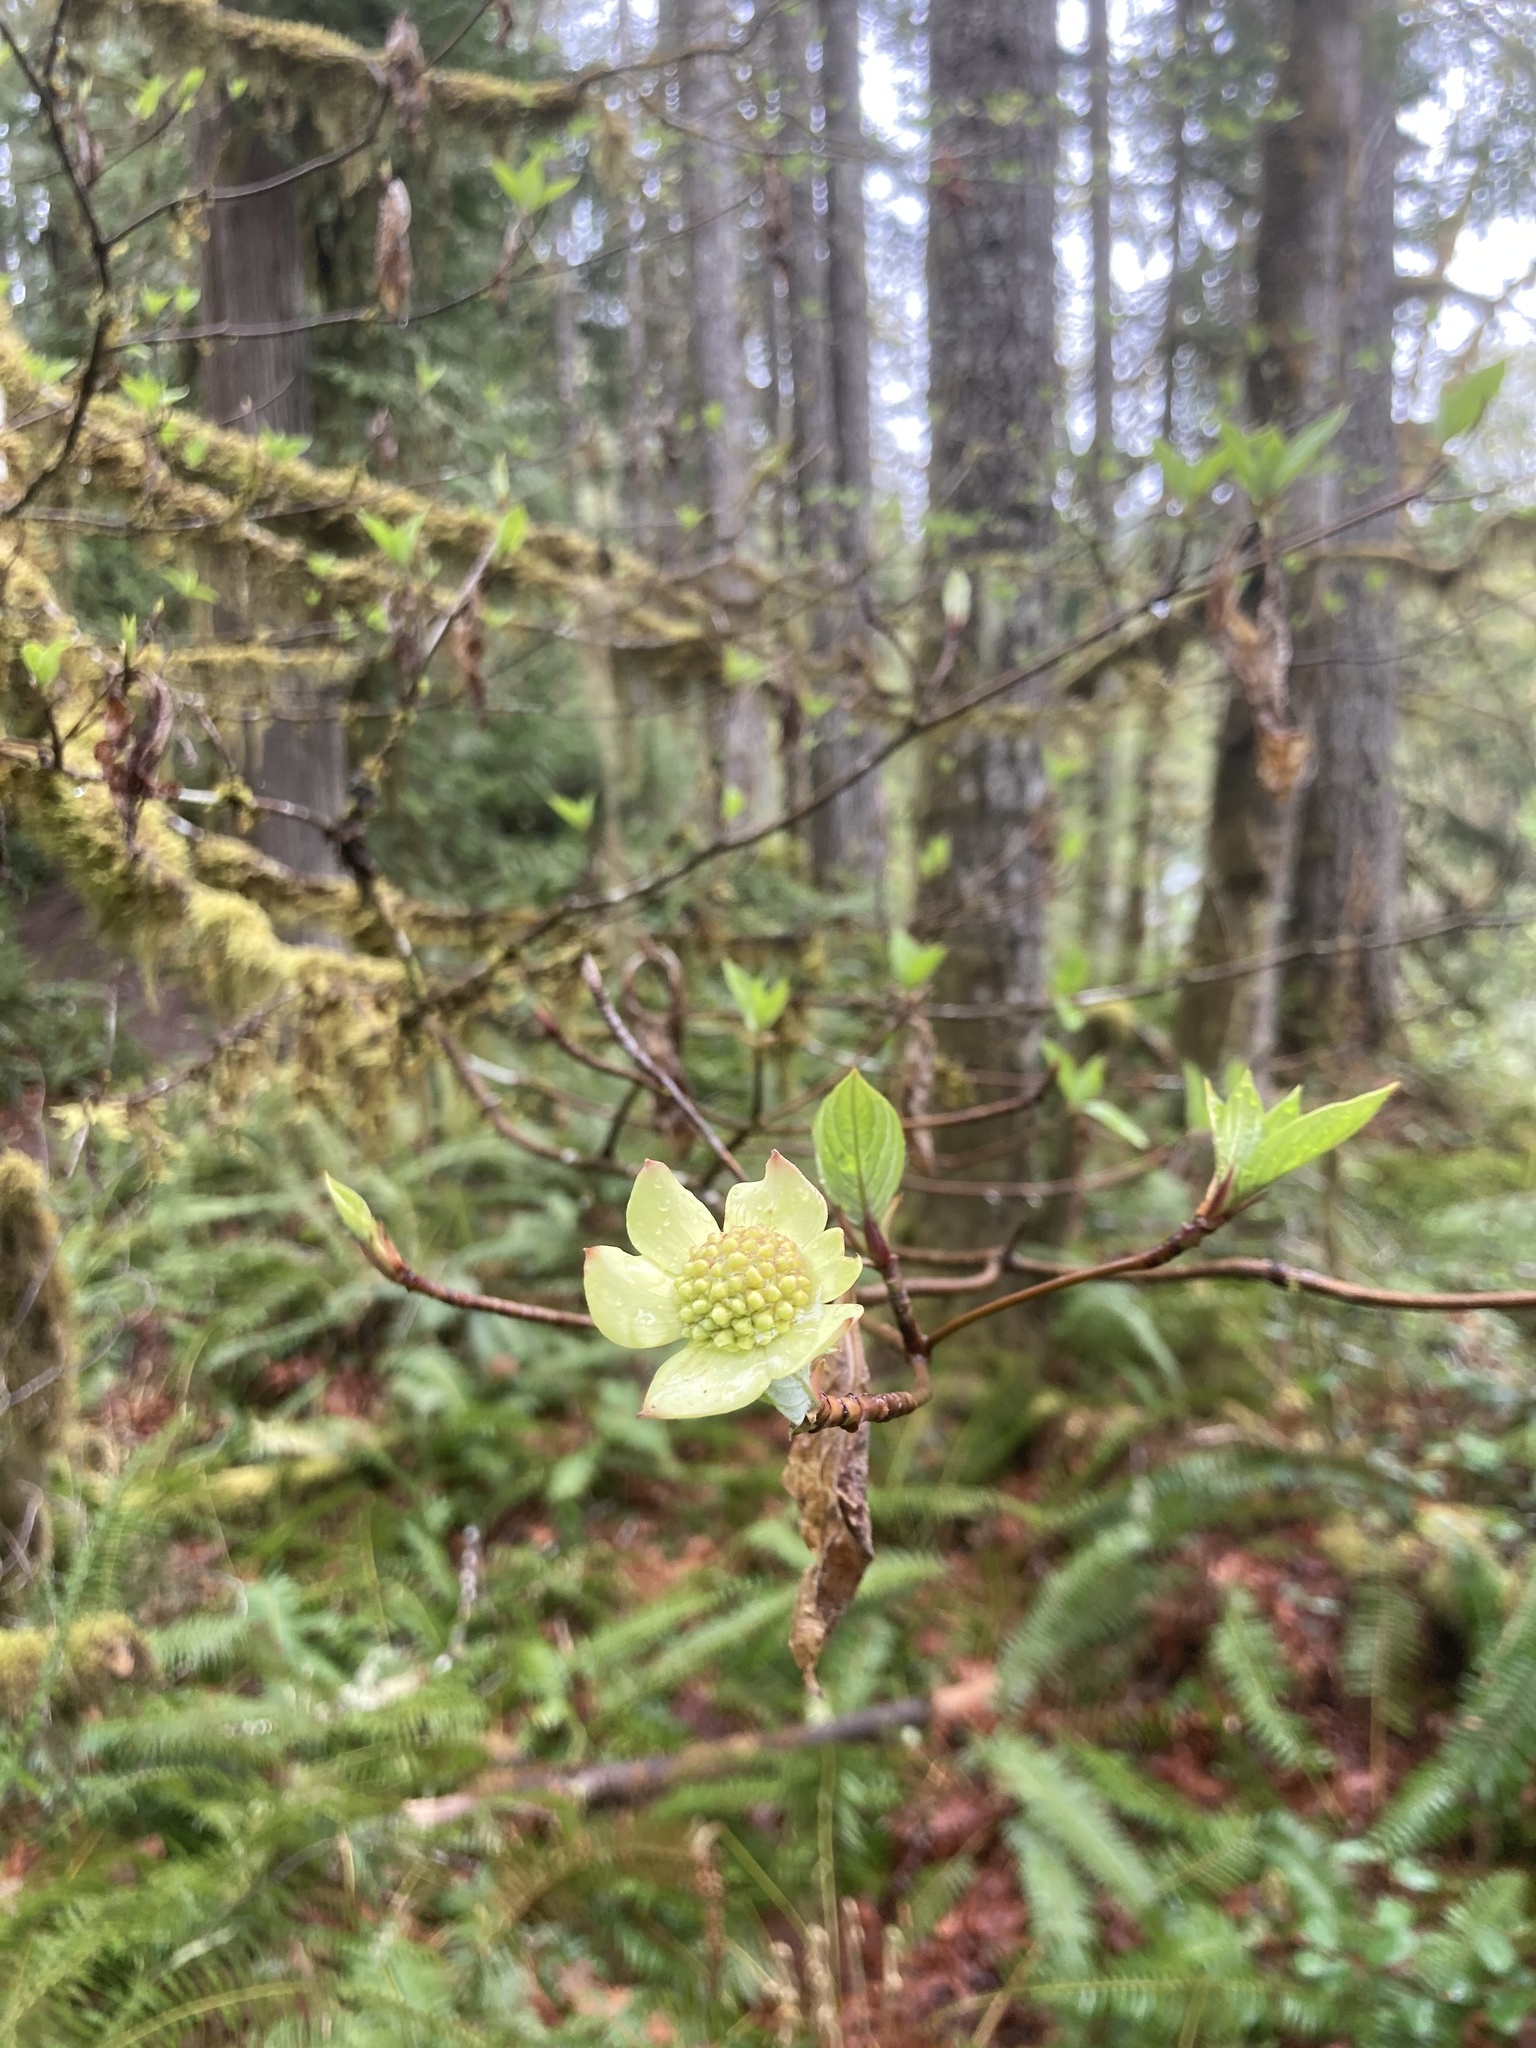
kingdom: Plantae
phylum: Tracheophyta
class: Magnoliopsida
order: Cornales
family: Cornaceae
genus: Cornus
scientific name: Cornus nuttallii
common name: Pacific dogwood
